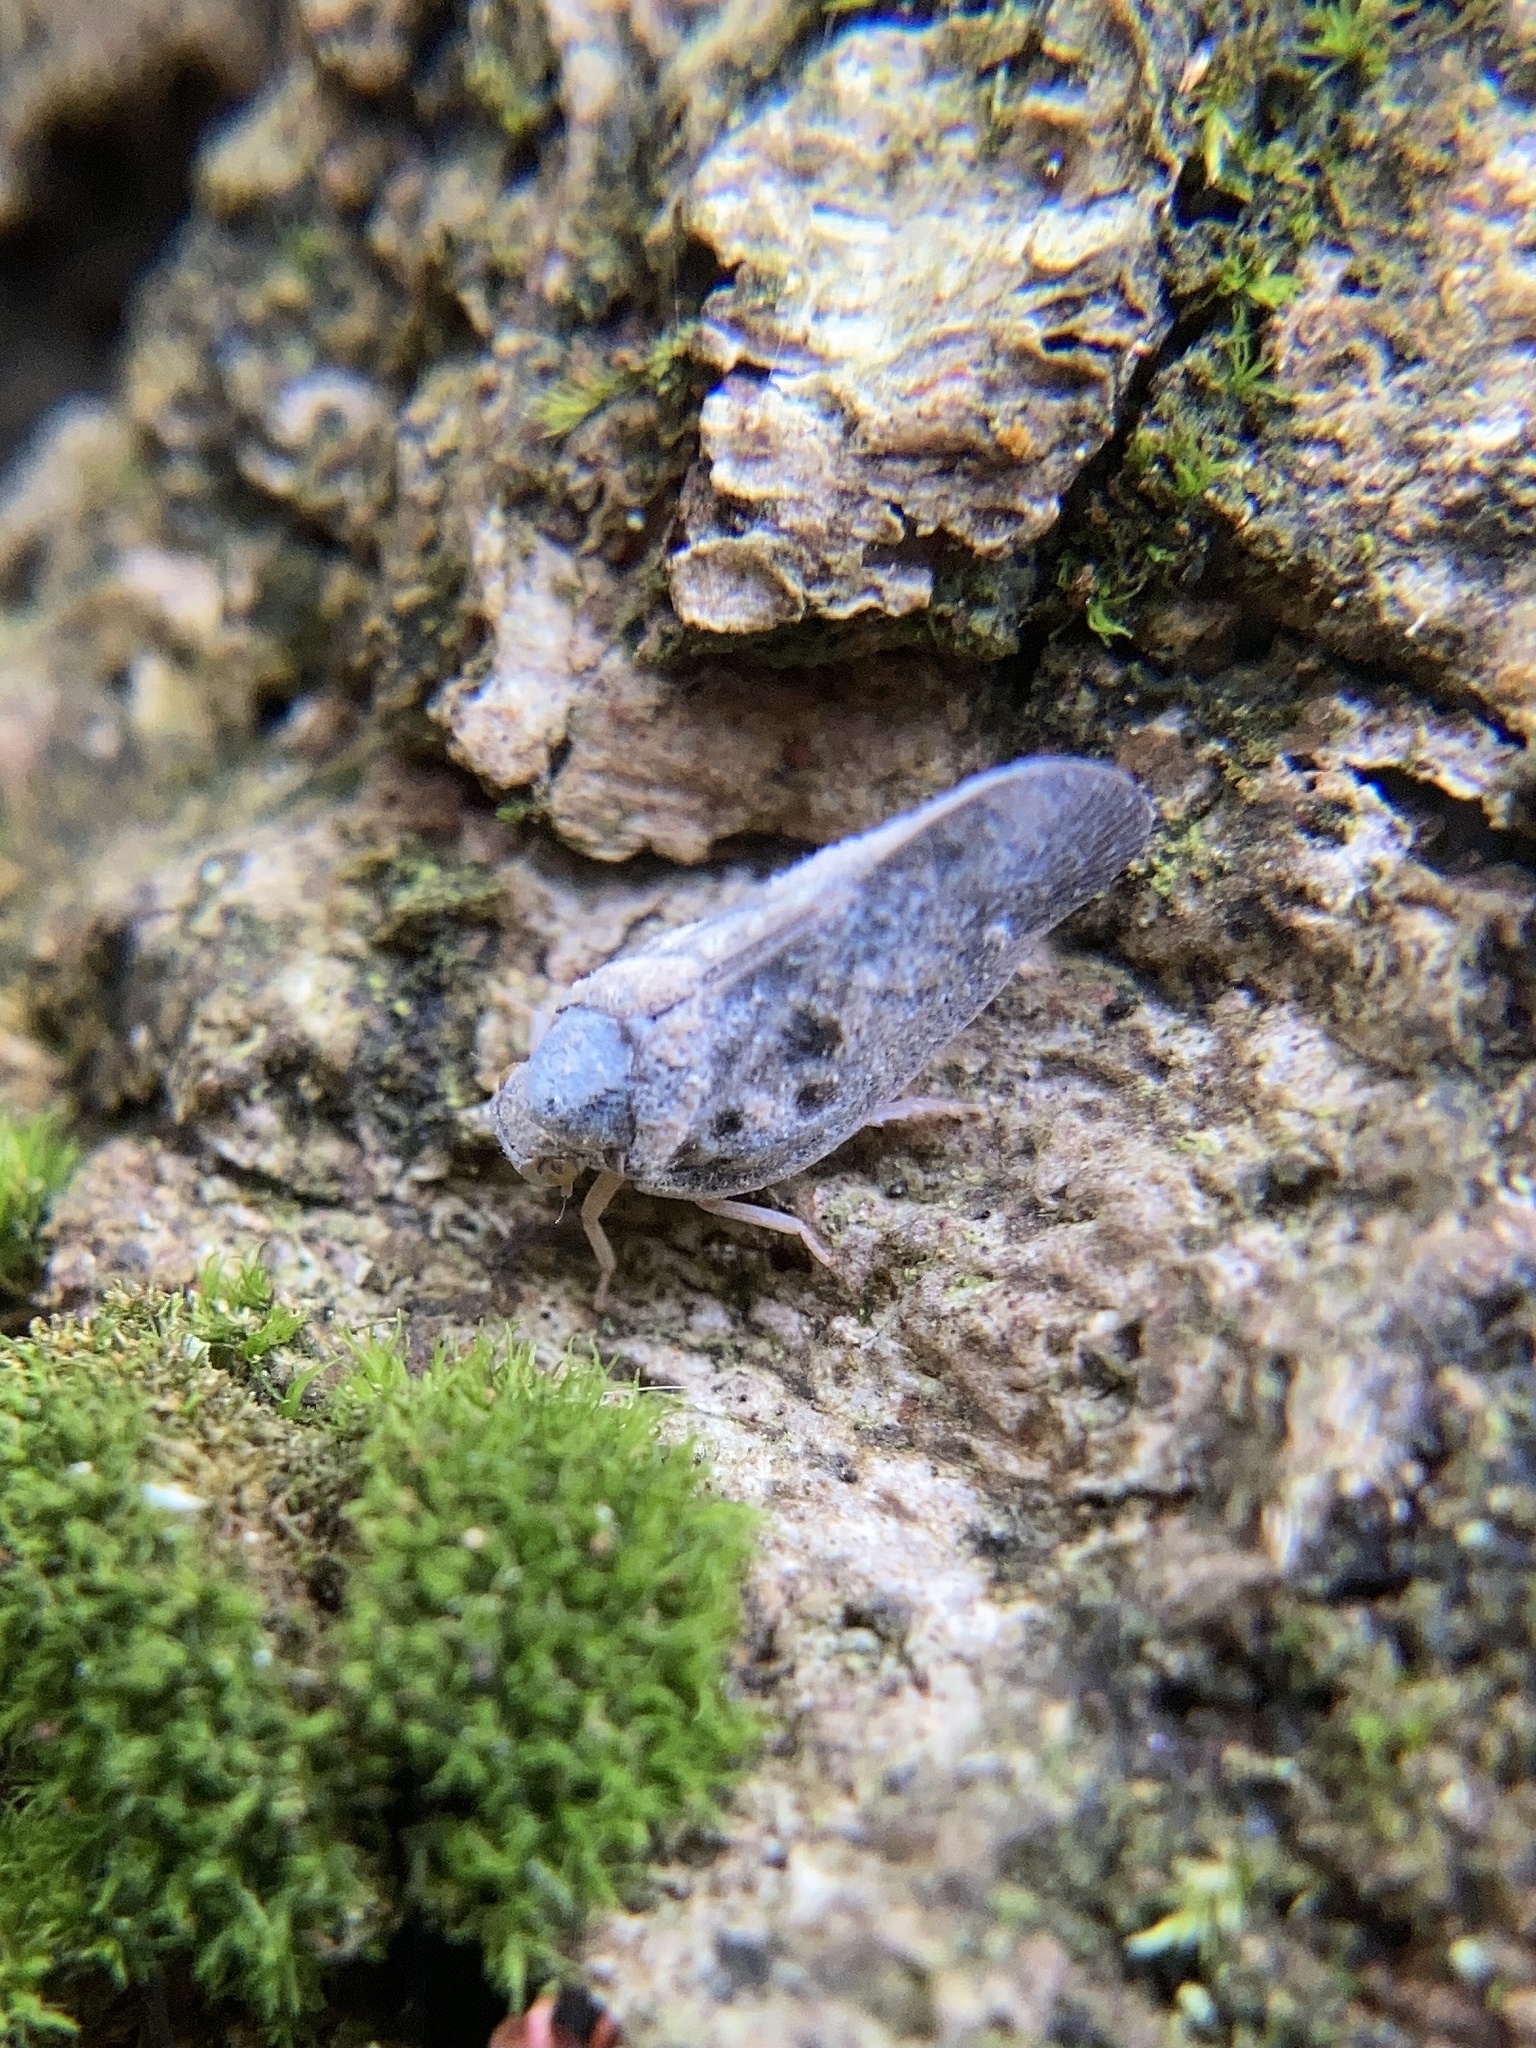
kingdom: Animalia
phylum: Arthropoda
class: Insecta
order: Hemiptera
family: Flatidae
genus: Metcalfa
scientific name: Metcalfa pruinosa
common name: Citrus flatid planthopper
